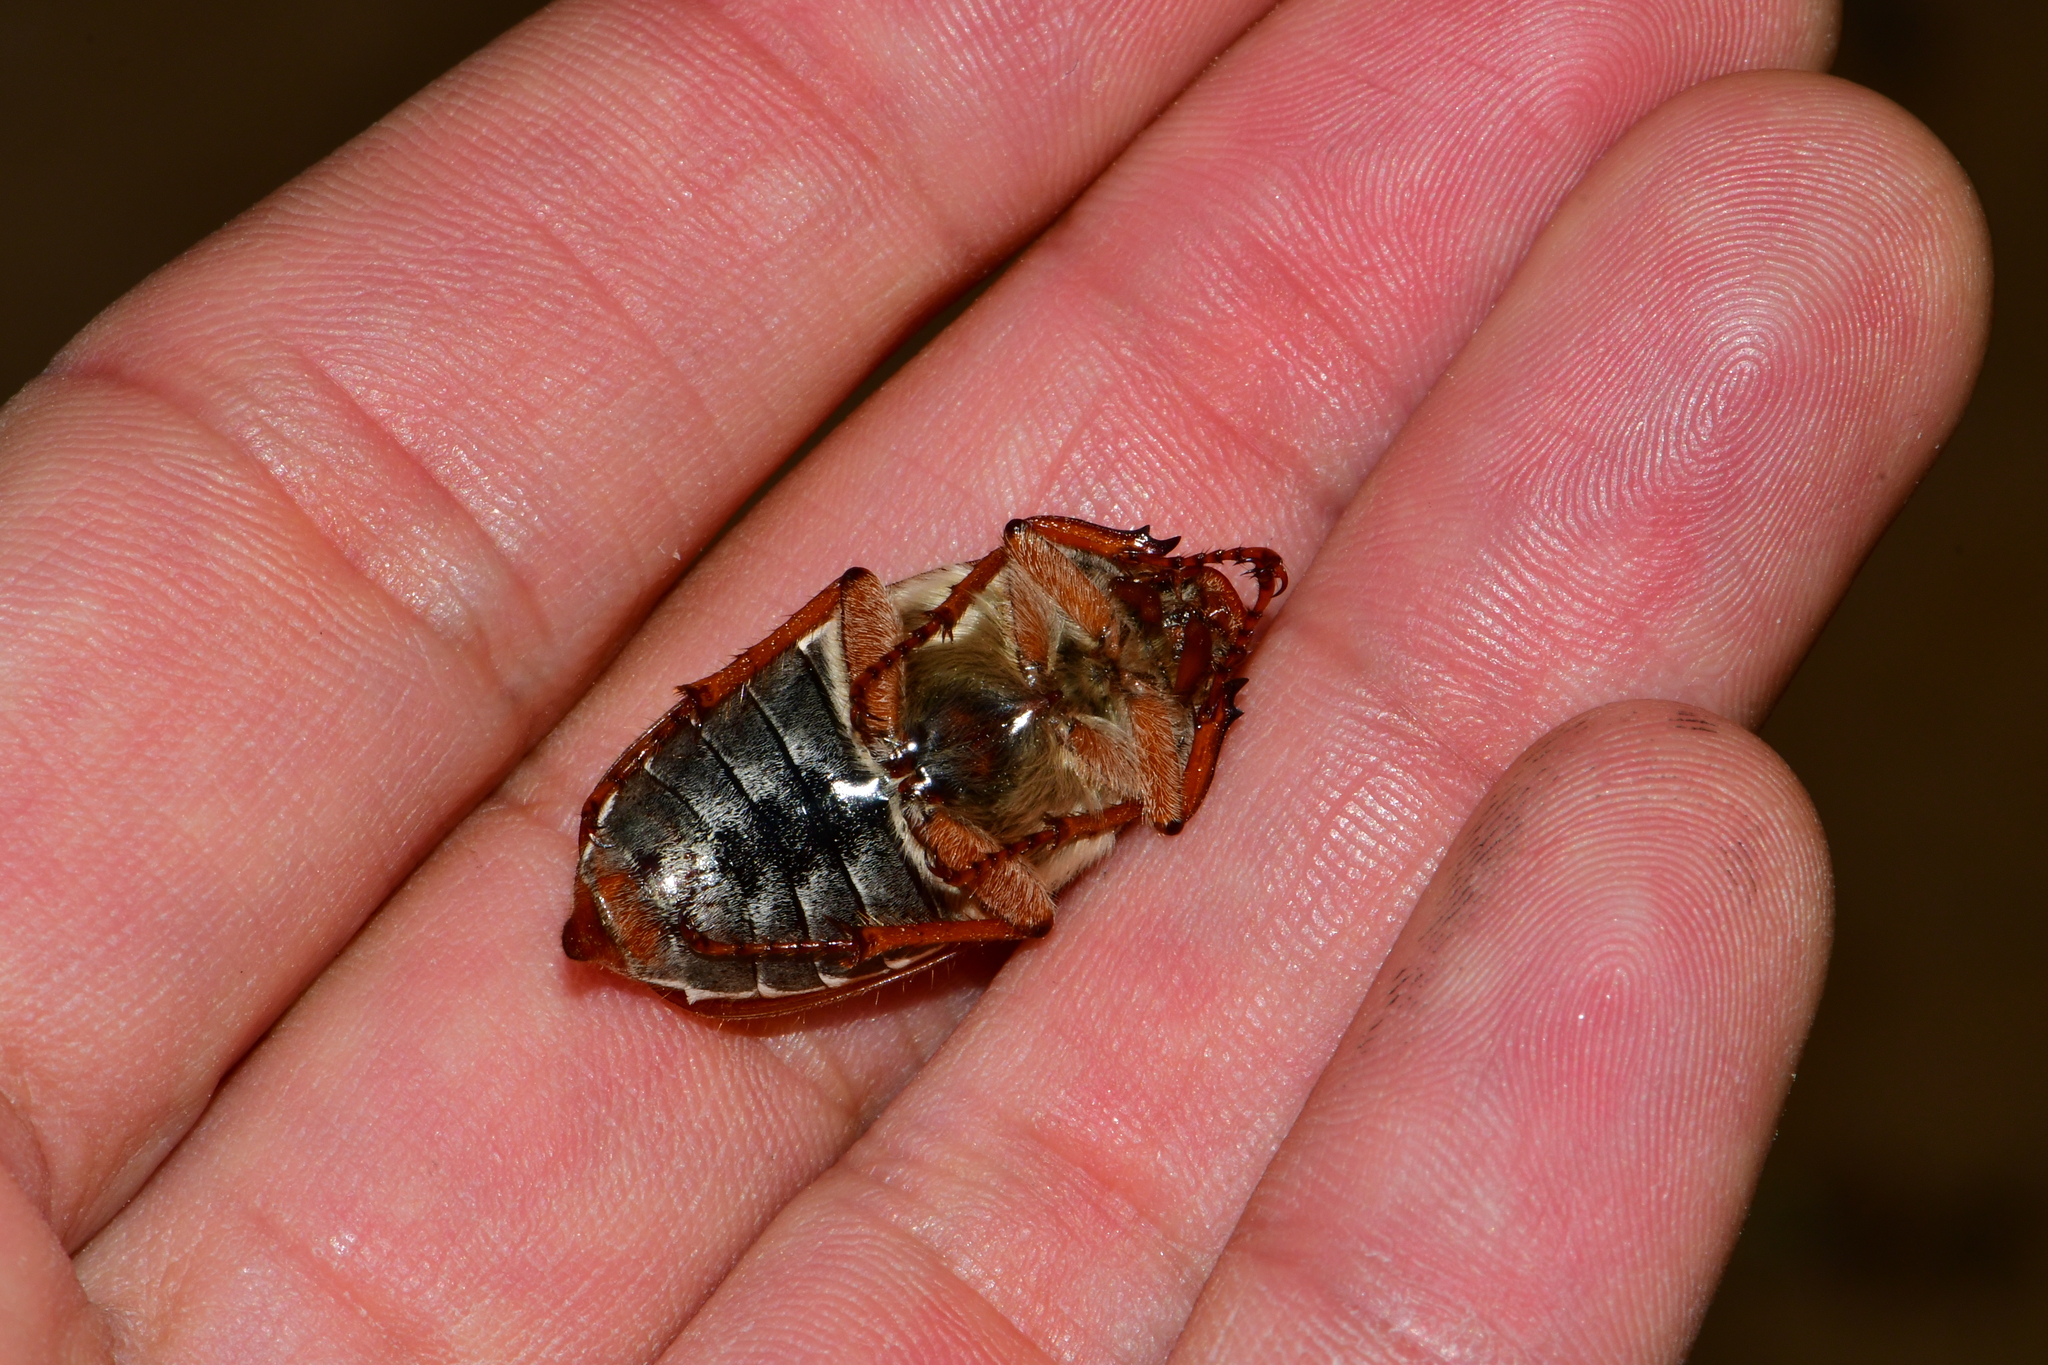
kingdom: Animalia
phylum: Arthropoda
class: Insecta
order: Coleoptera
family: Scarabaeidae
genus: Melolontha
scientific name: Melolontha melolontha
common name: Cockchafer maybeetle
